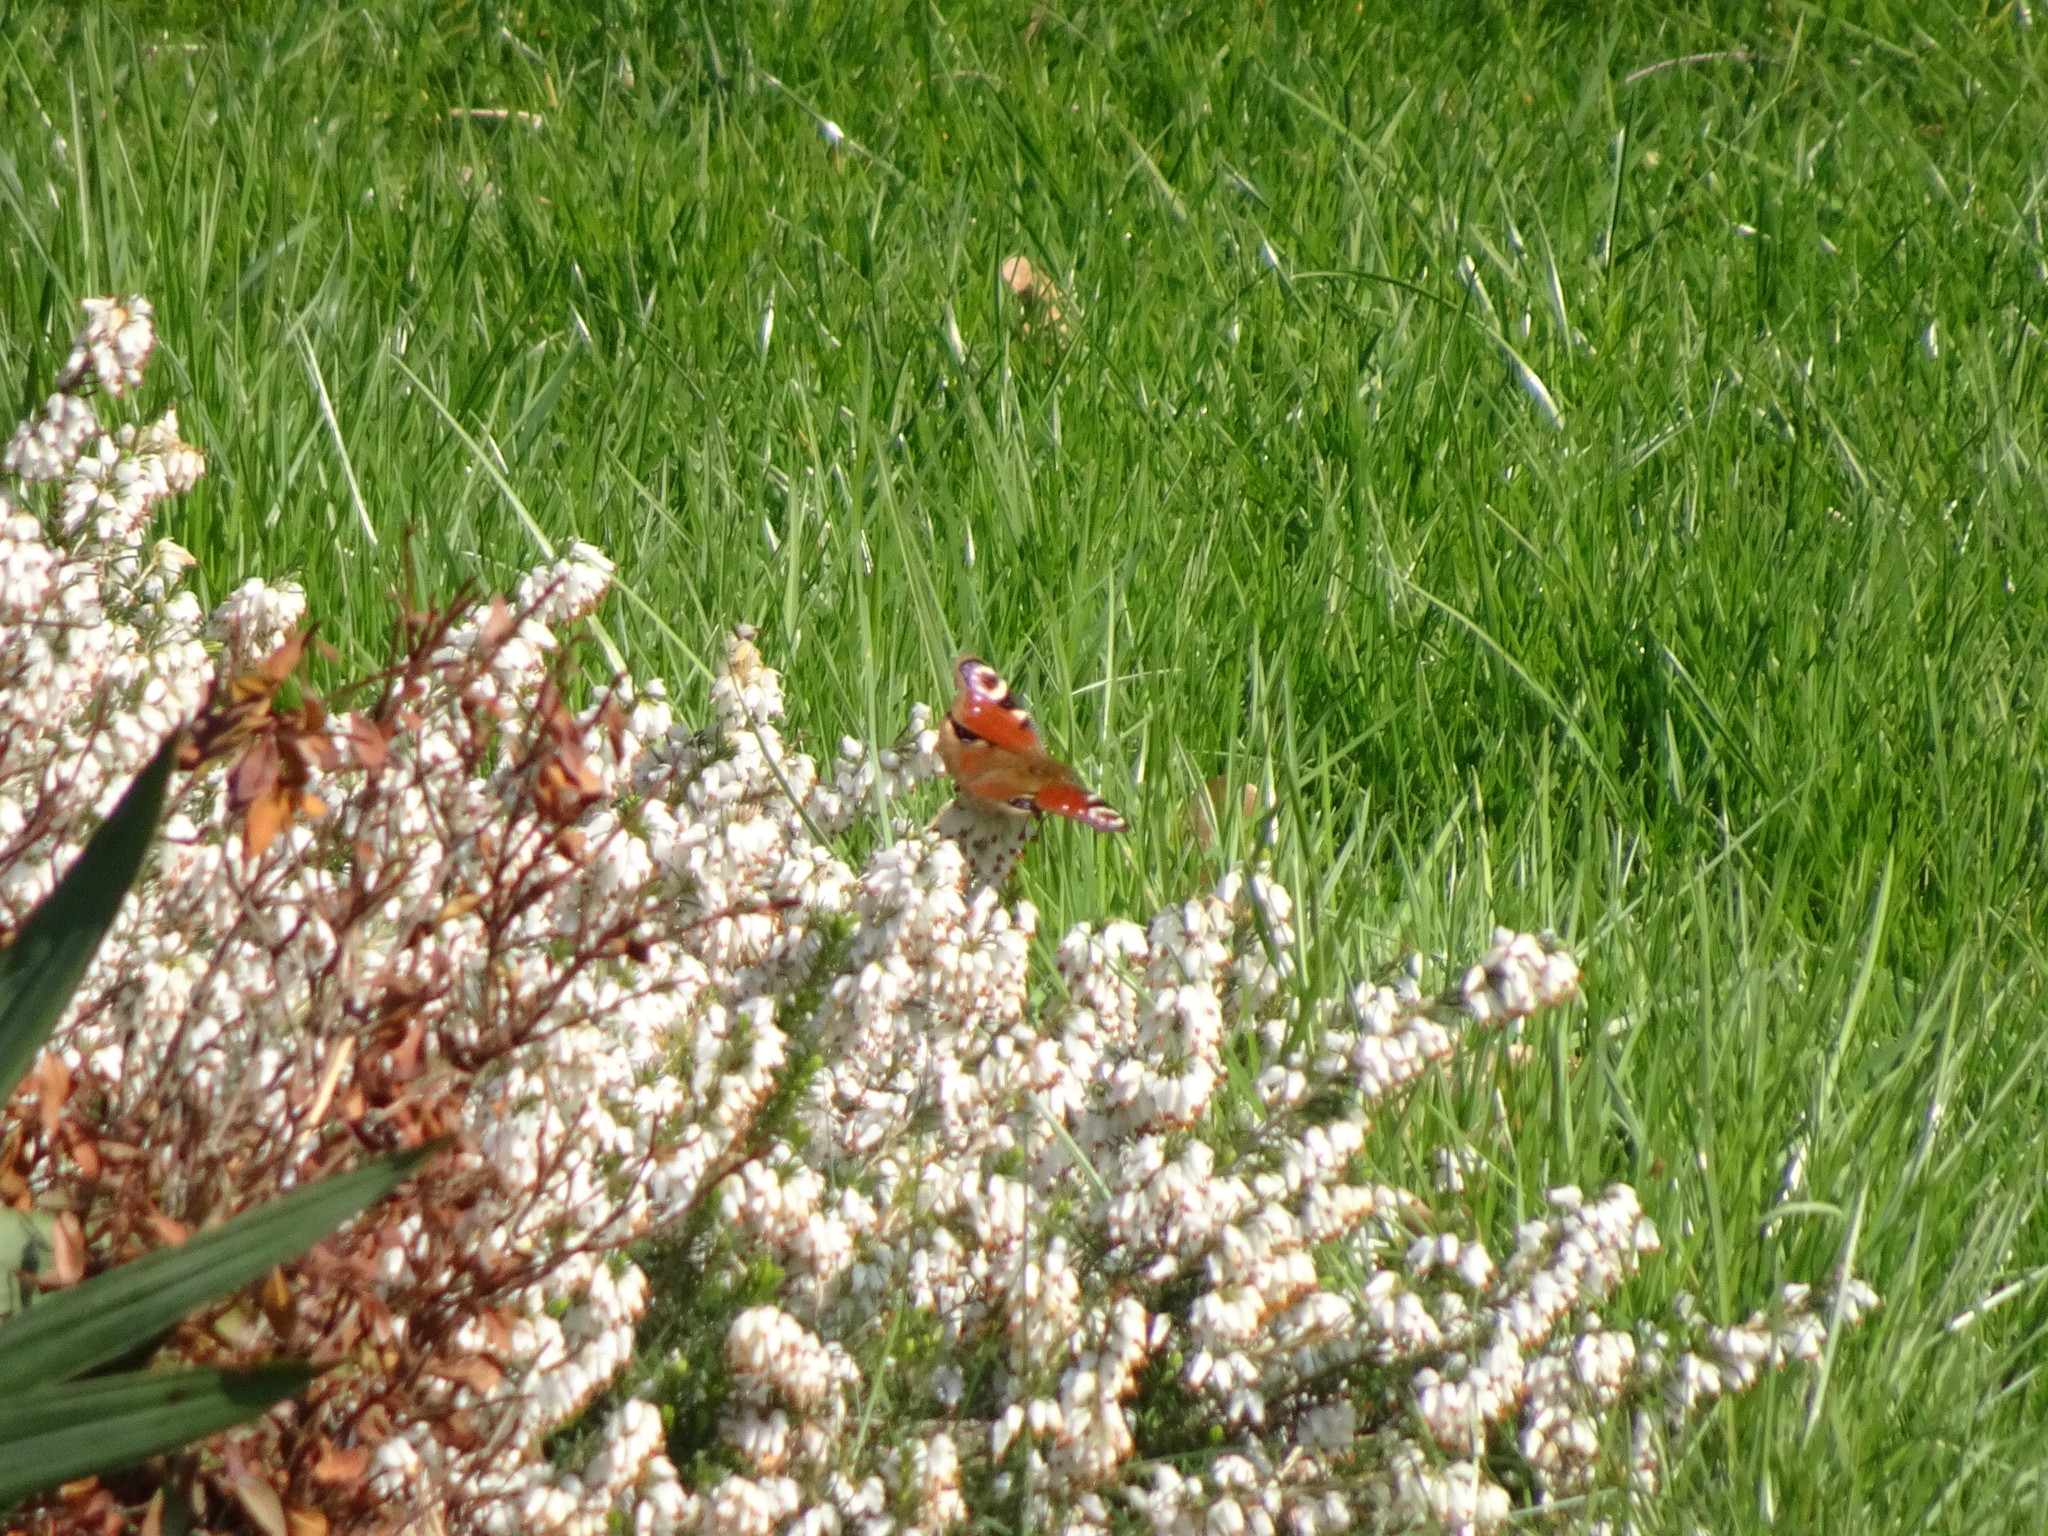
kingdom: Animalia
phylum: Arthropoda
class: Insecta
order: Lepidoptera
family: Nymphalidae
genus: Aglais
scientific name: Aglais io
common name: Peacock
